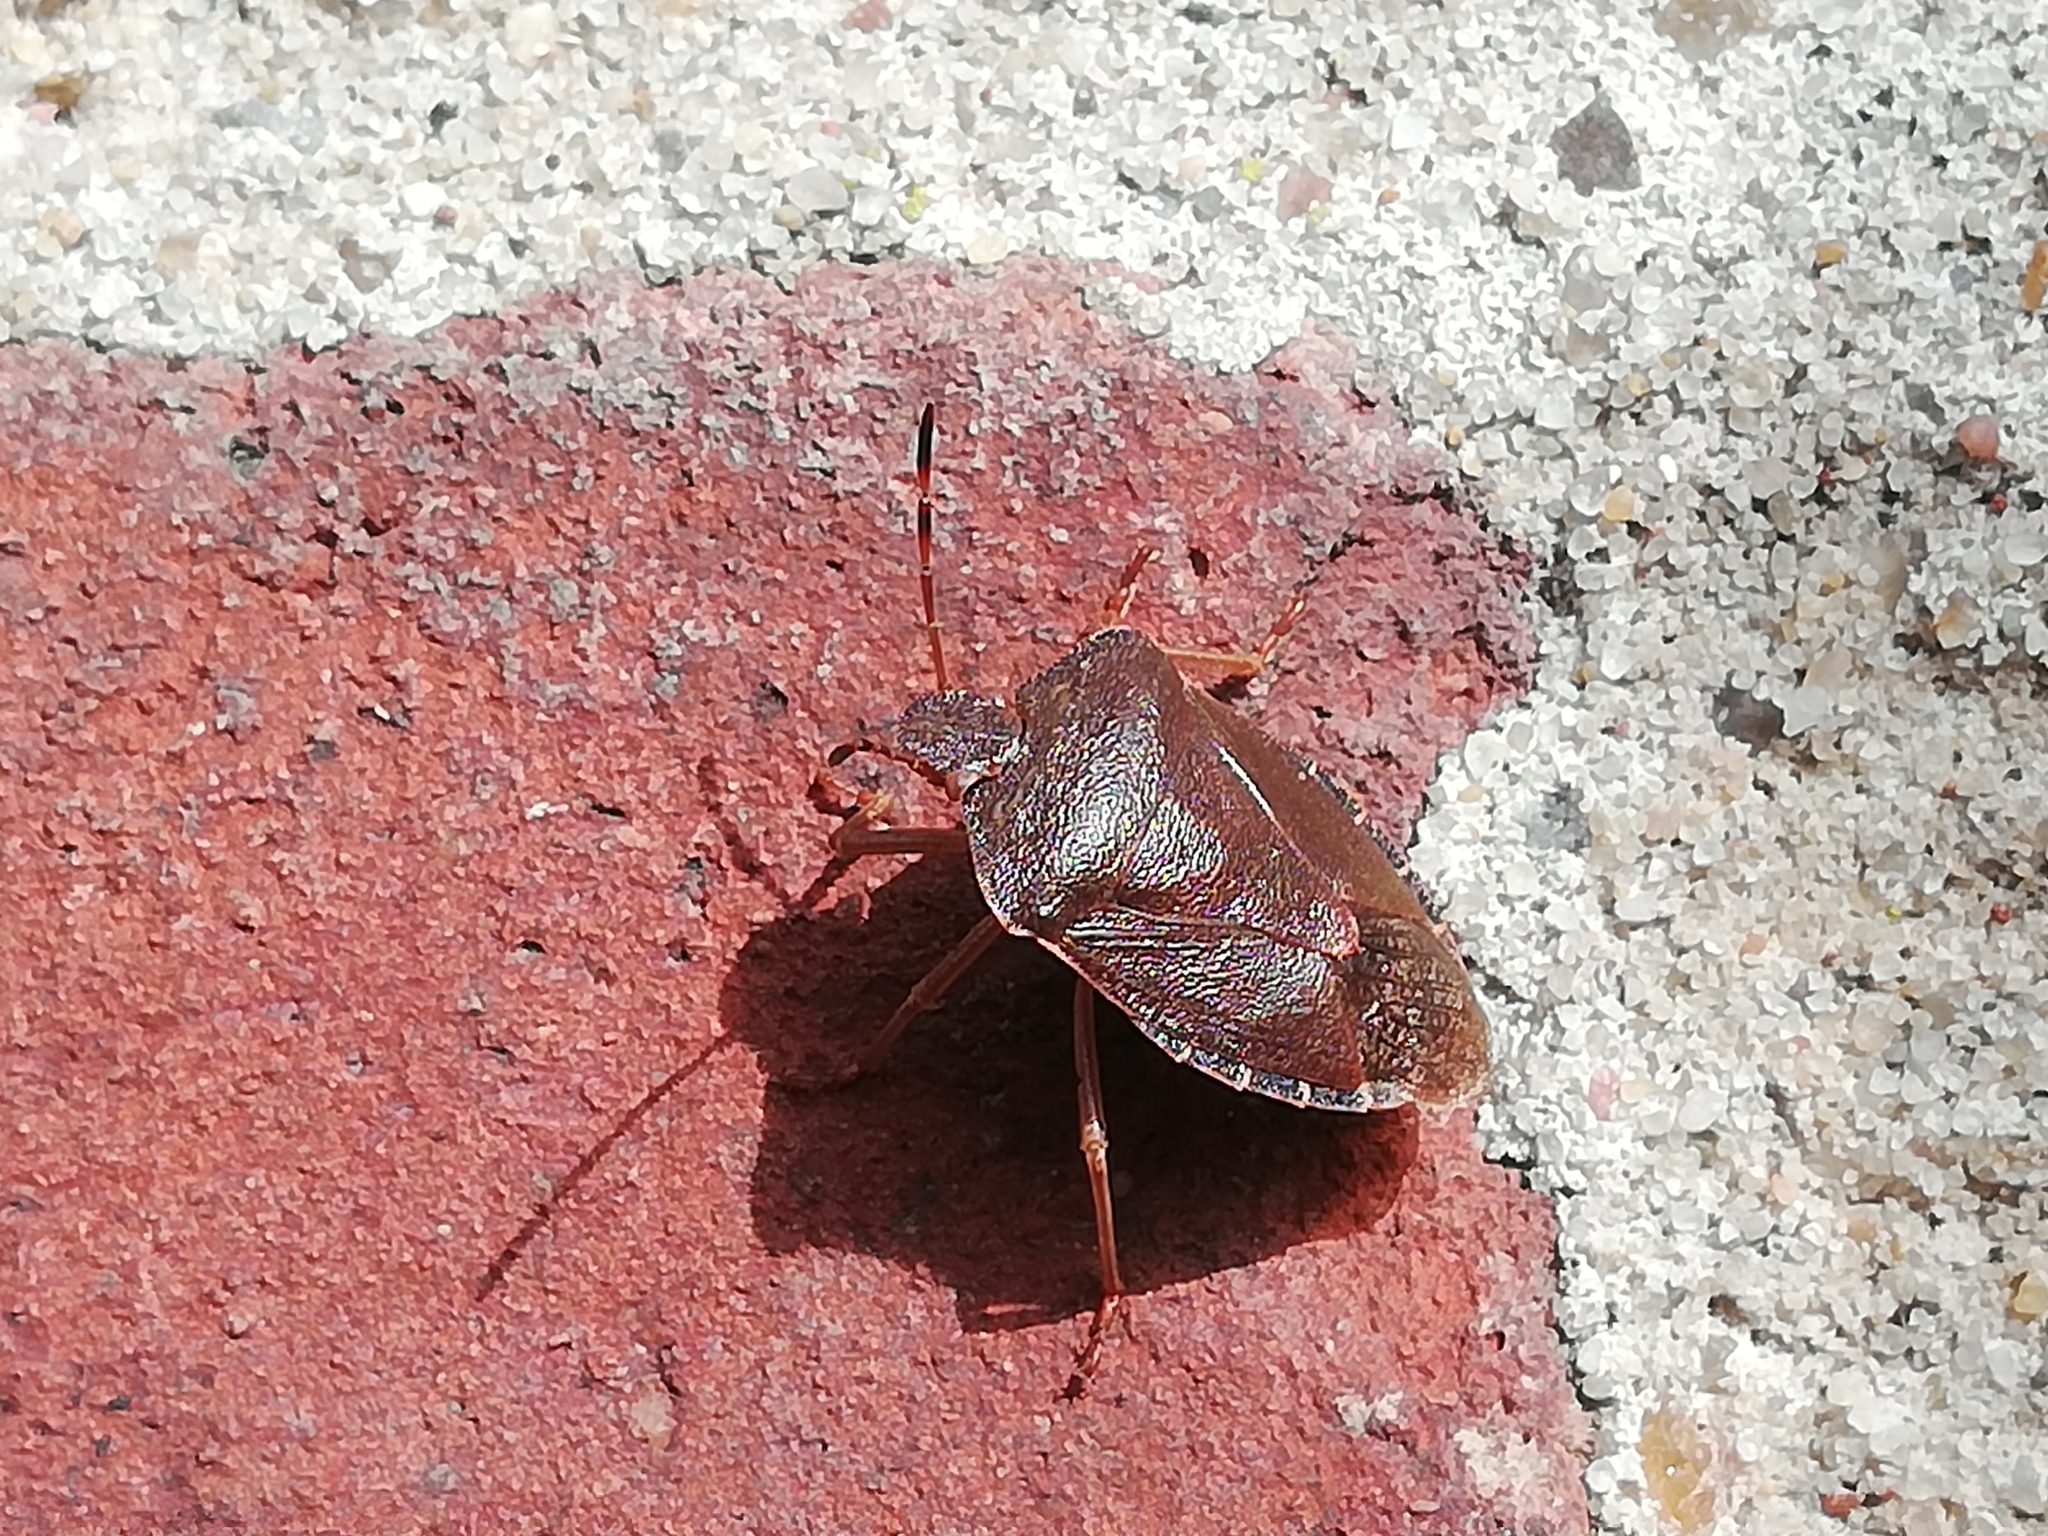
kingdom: Animalia
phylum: Arthropoda
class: Insecta
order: Hemiptera
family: Pentatomidae
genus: Palomena
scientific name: Palomena prasina
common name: Green shieldbug
